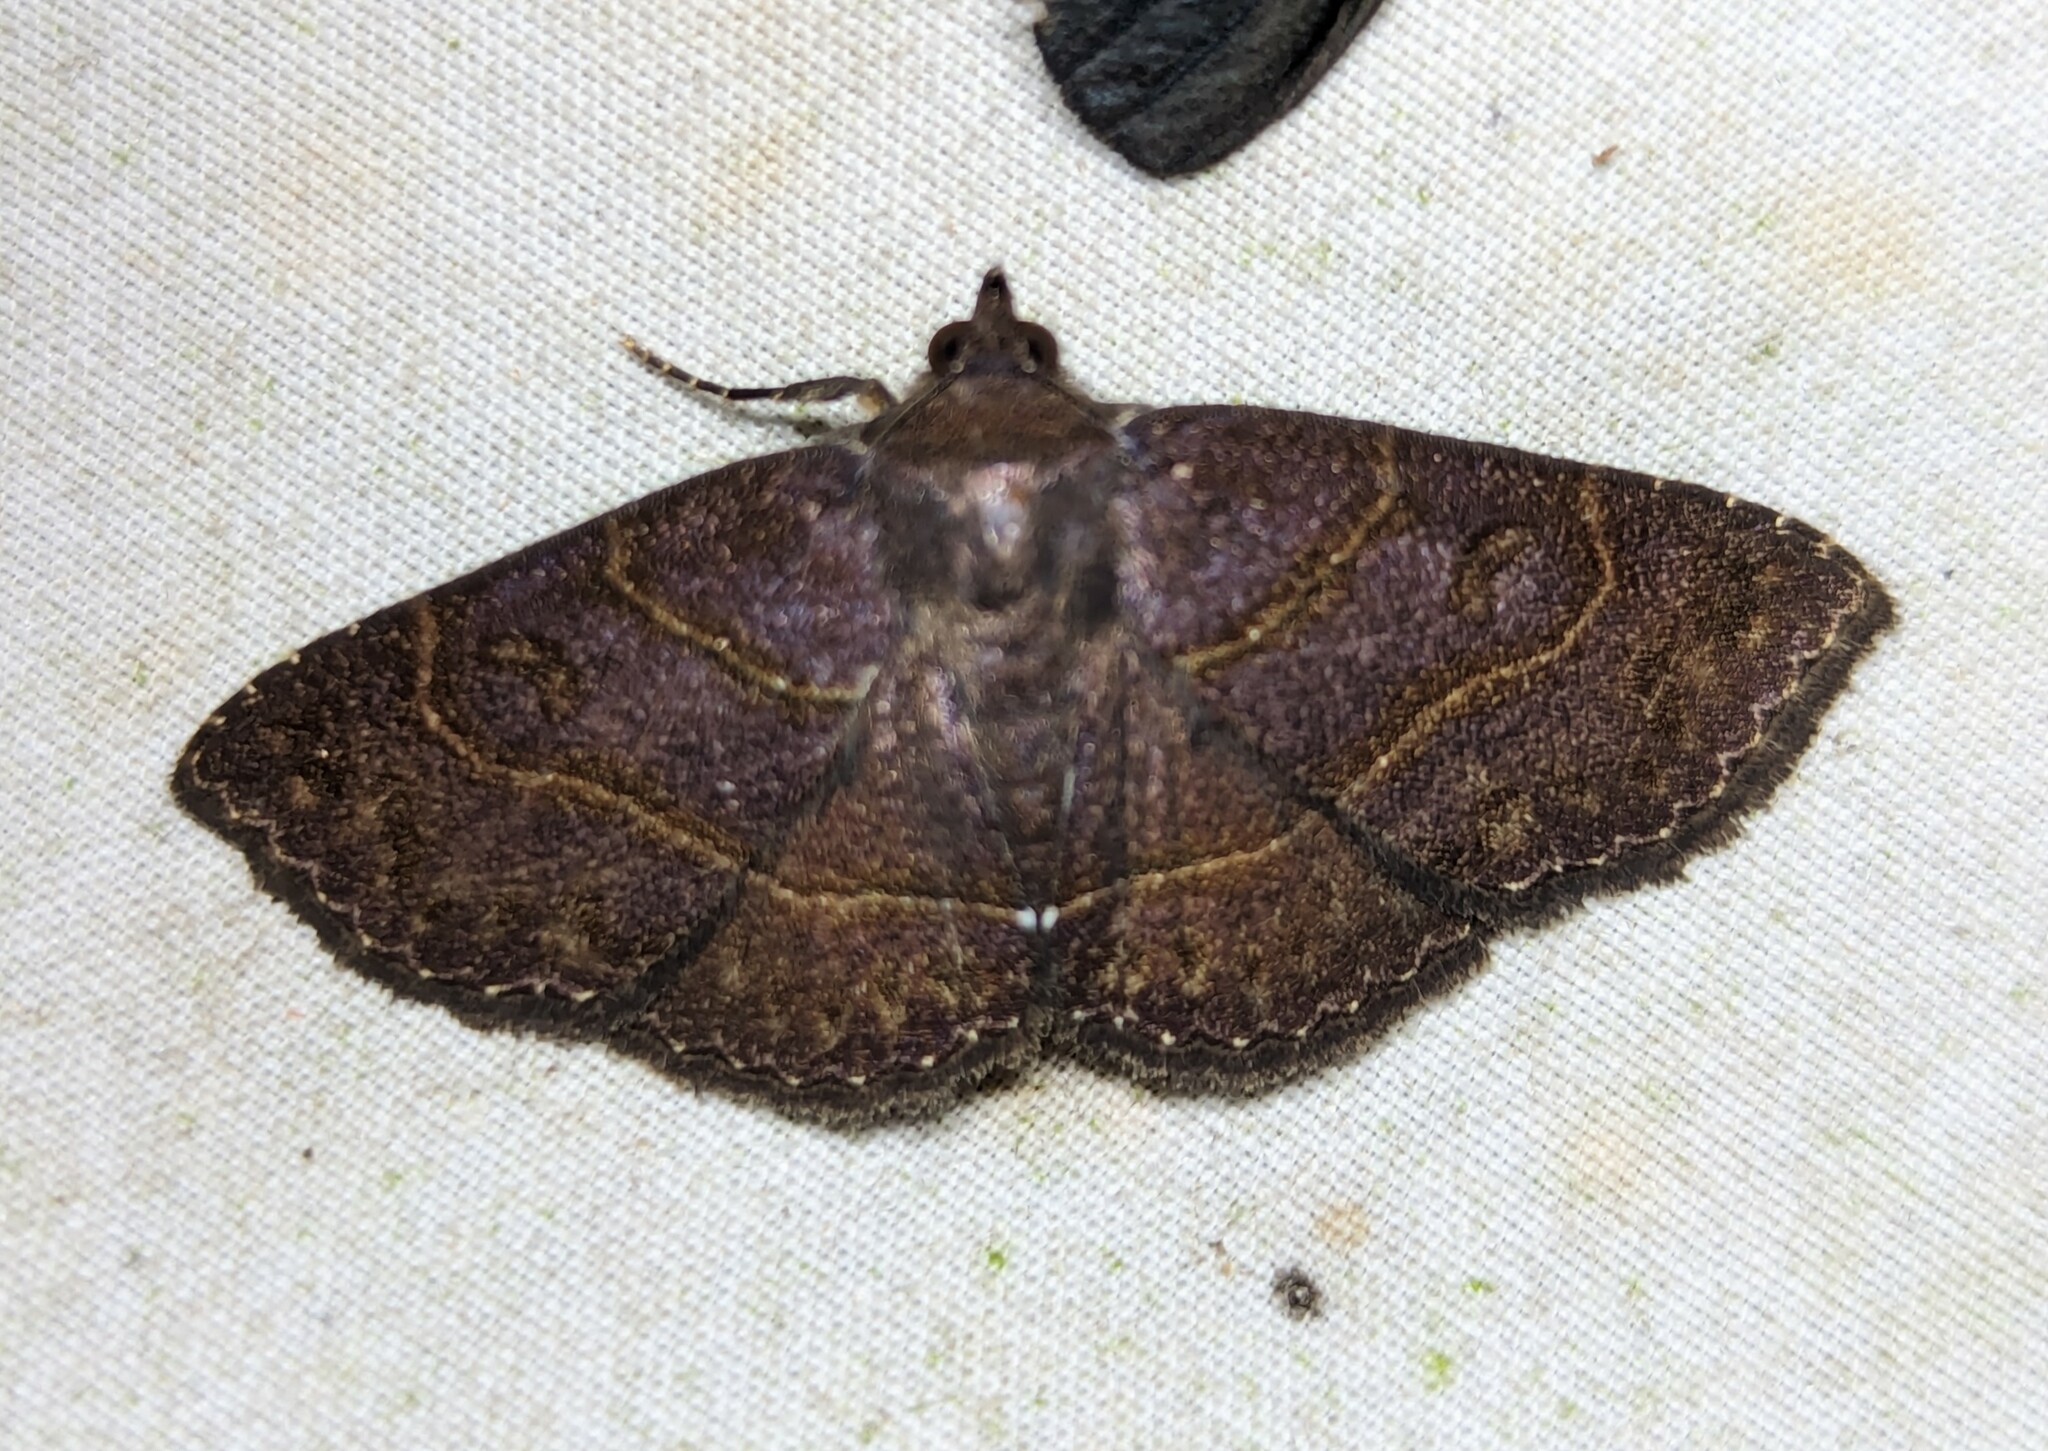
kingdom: Animalia
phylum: Arthropoda
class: Insecta
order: Lepidoptera
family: Erebidae
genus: Antiblemma
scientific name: Antiblemma concinnula
